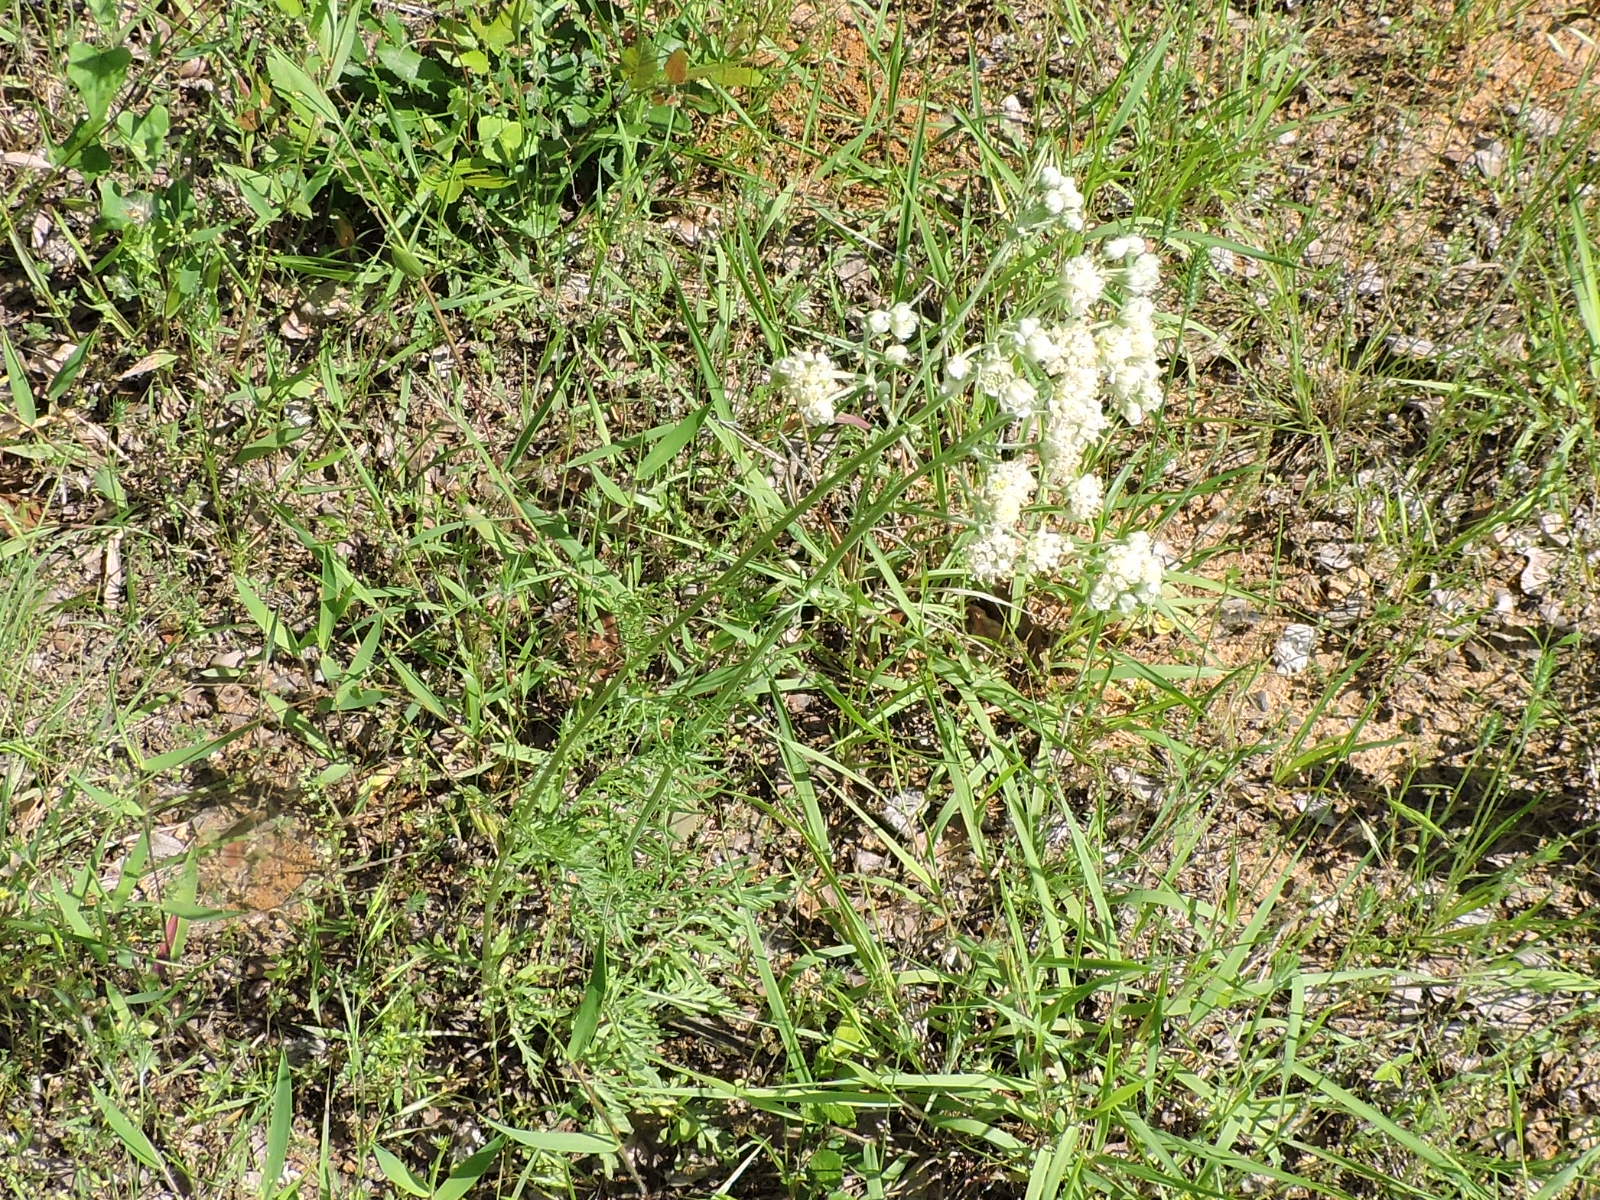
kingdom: Plantae
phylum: Tracheophyta
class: Magnoliopsida
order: Asterales
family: Asteraceae
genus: Hymenopappus
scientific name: Hymenopappus scabiosaeus
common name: Carolina woollywhite
